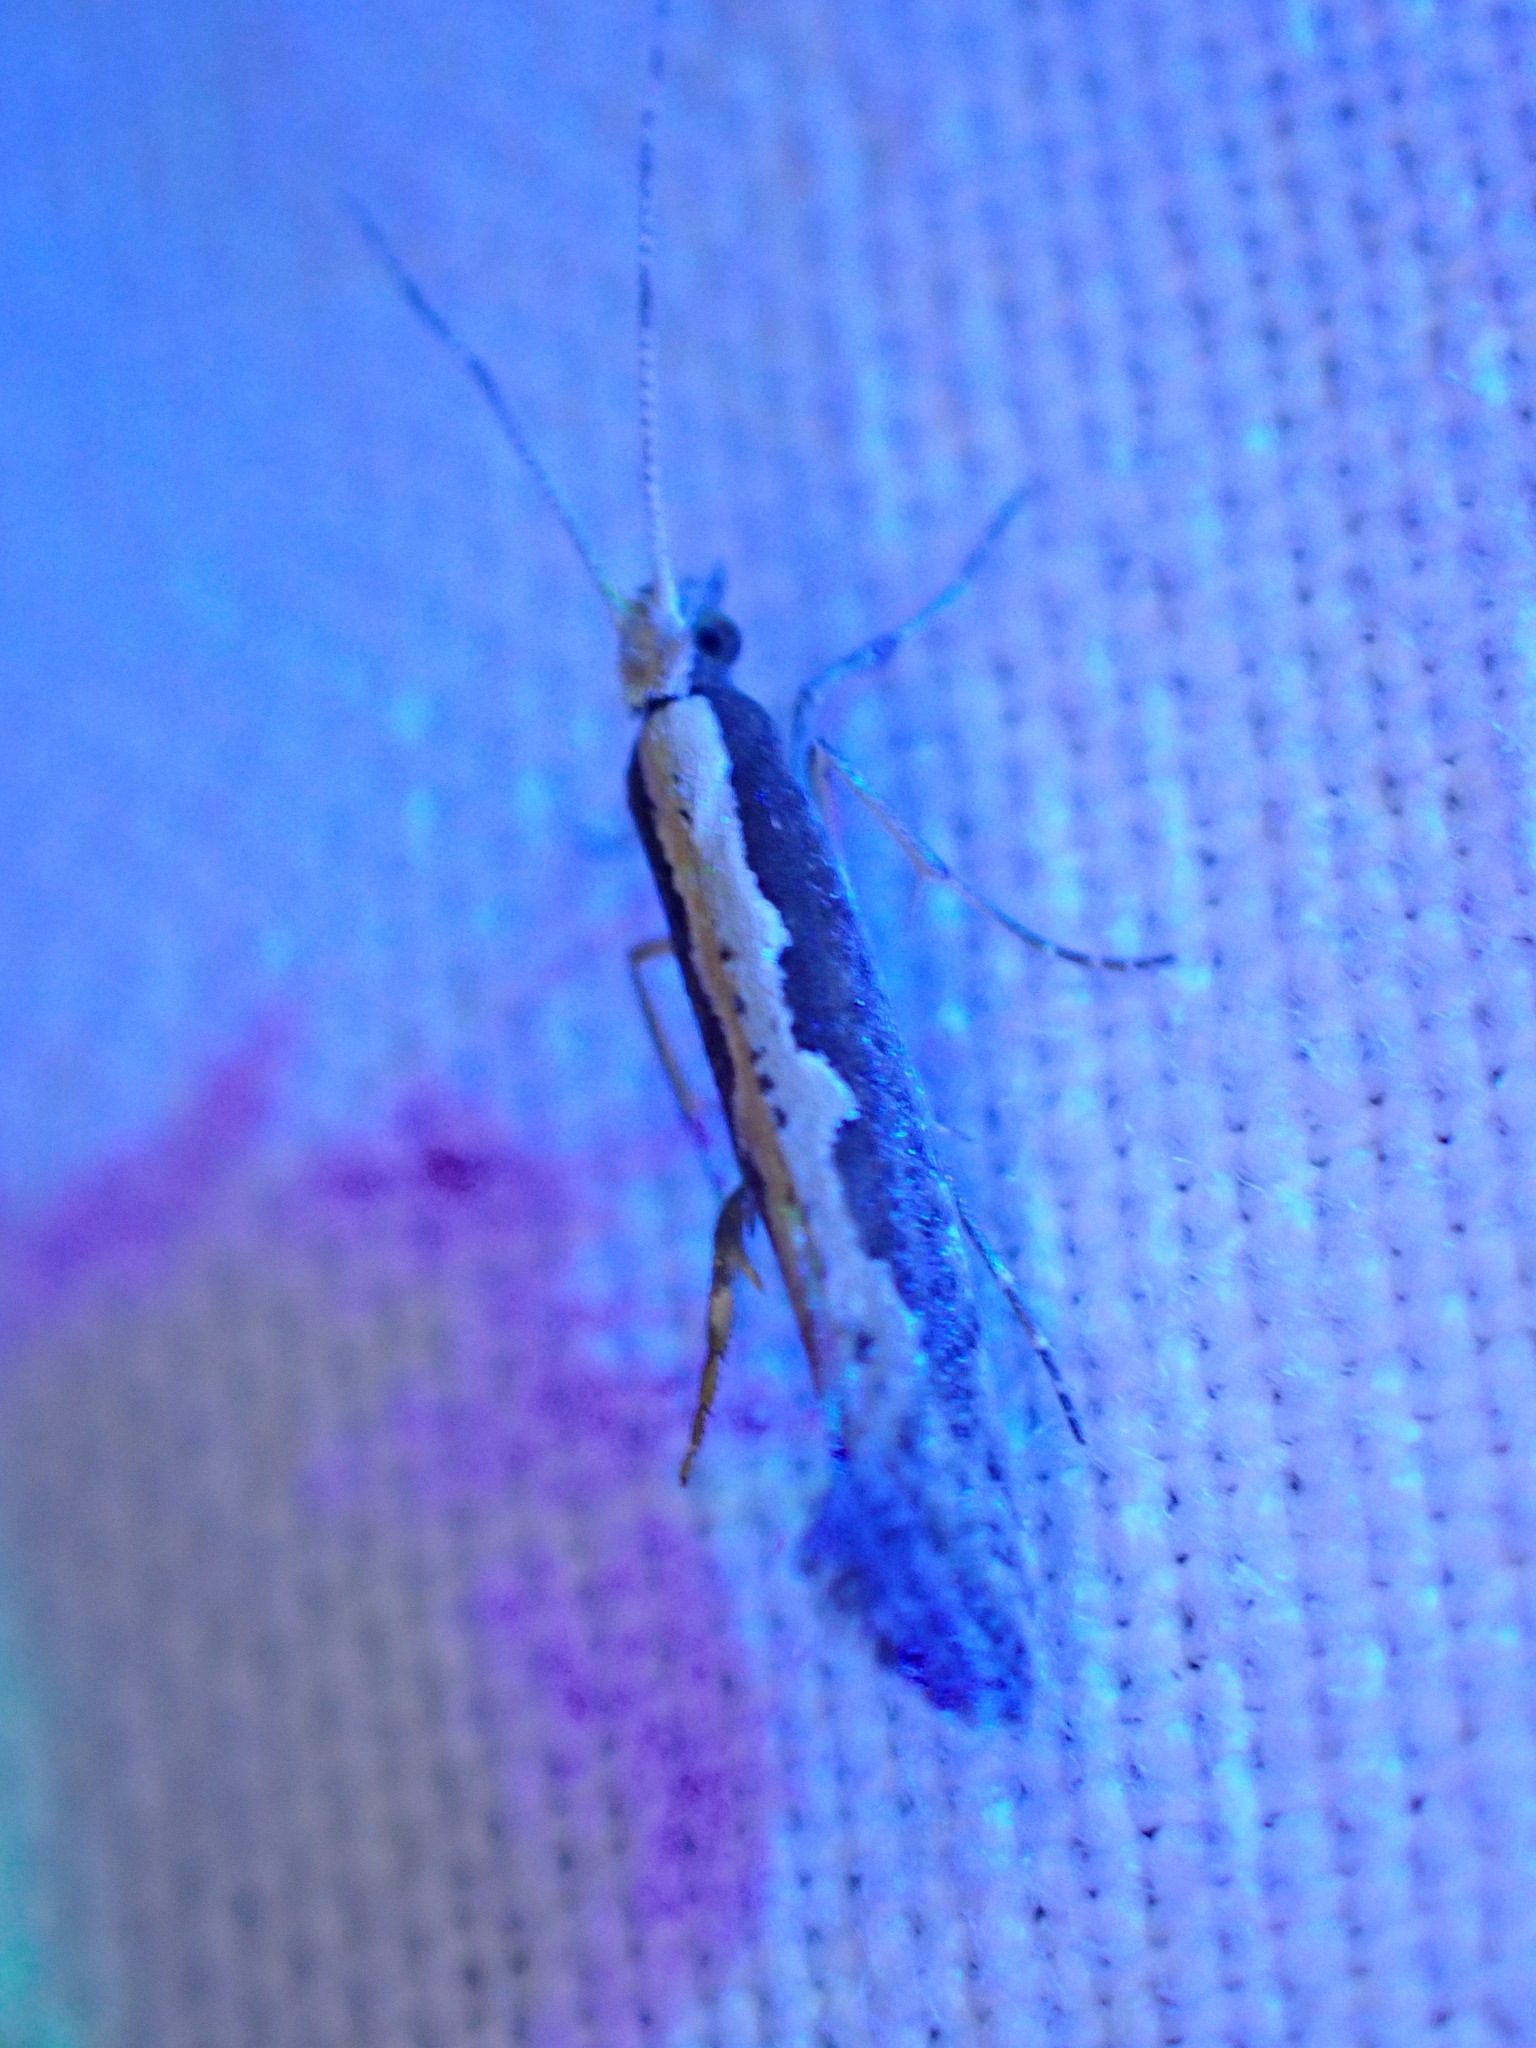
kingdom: Animalia
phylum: Arthropoda
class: Insecta
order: Lepidoptera
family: Plutellidae
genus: Plutella
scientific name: Plutella xylostella
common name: Diamond-back moth
